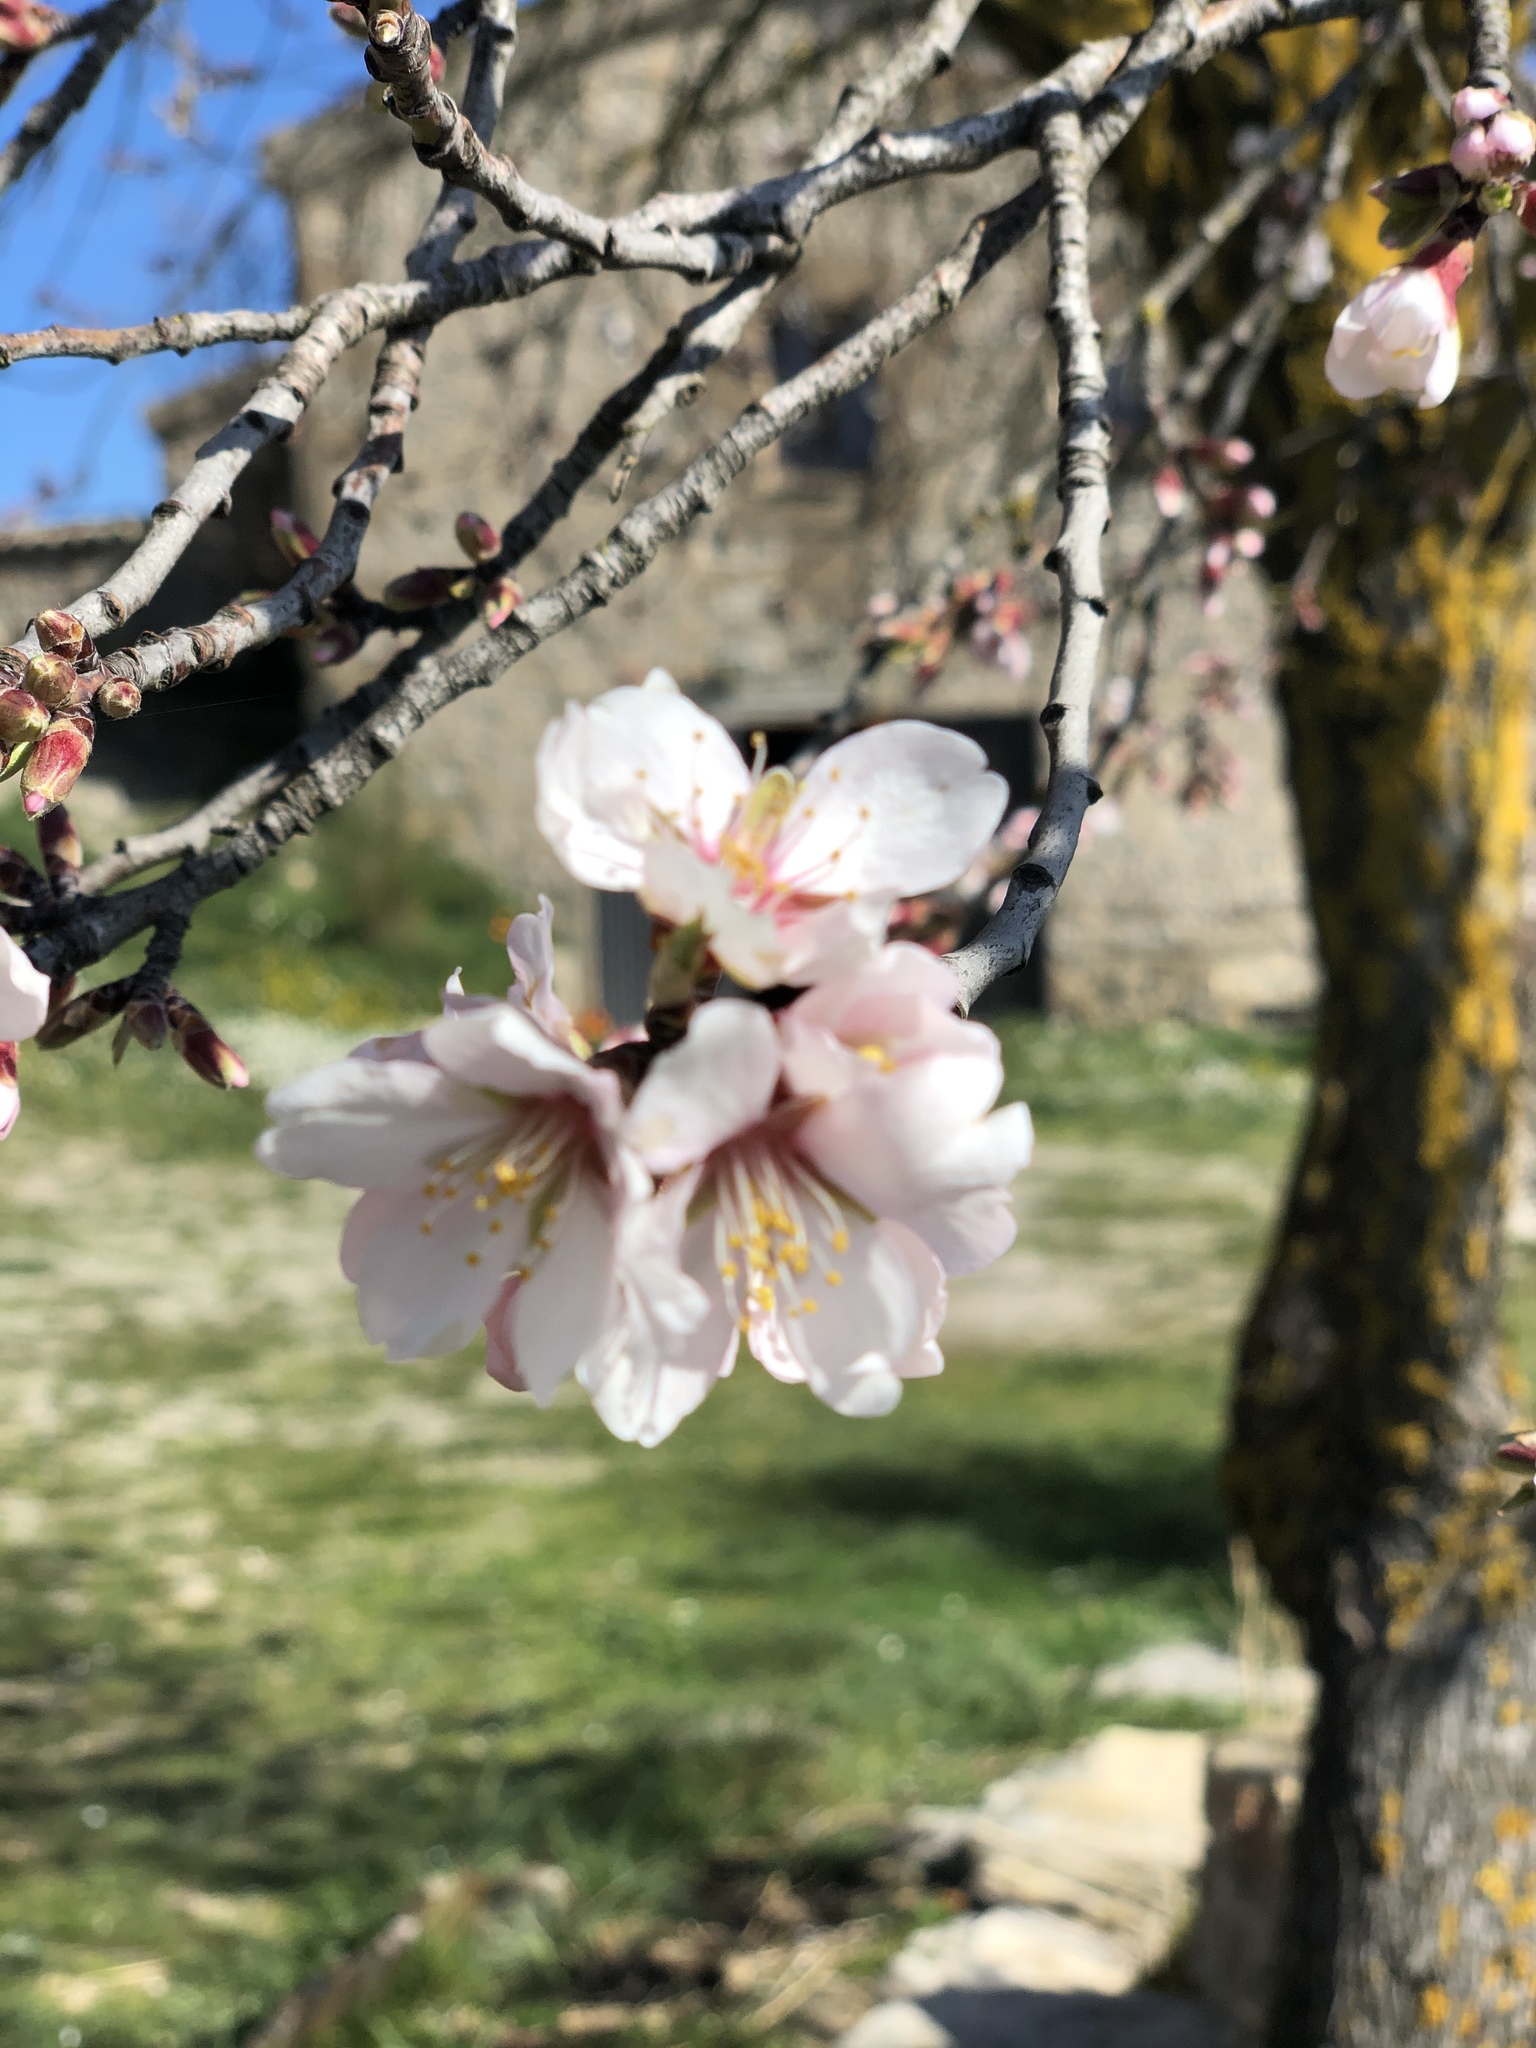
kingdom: Plantae
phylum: Tracheophyta
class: Magnoliopsida
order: Rosales
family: Rosaceae
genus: Prunus
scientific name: Prunus amygdalus
